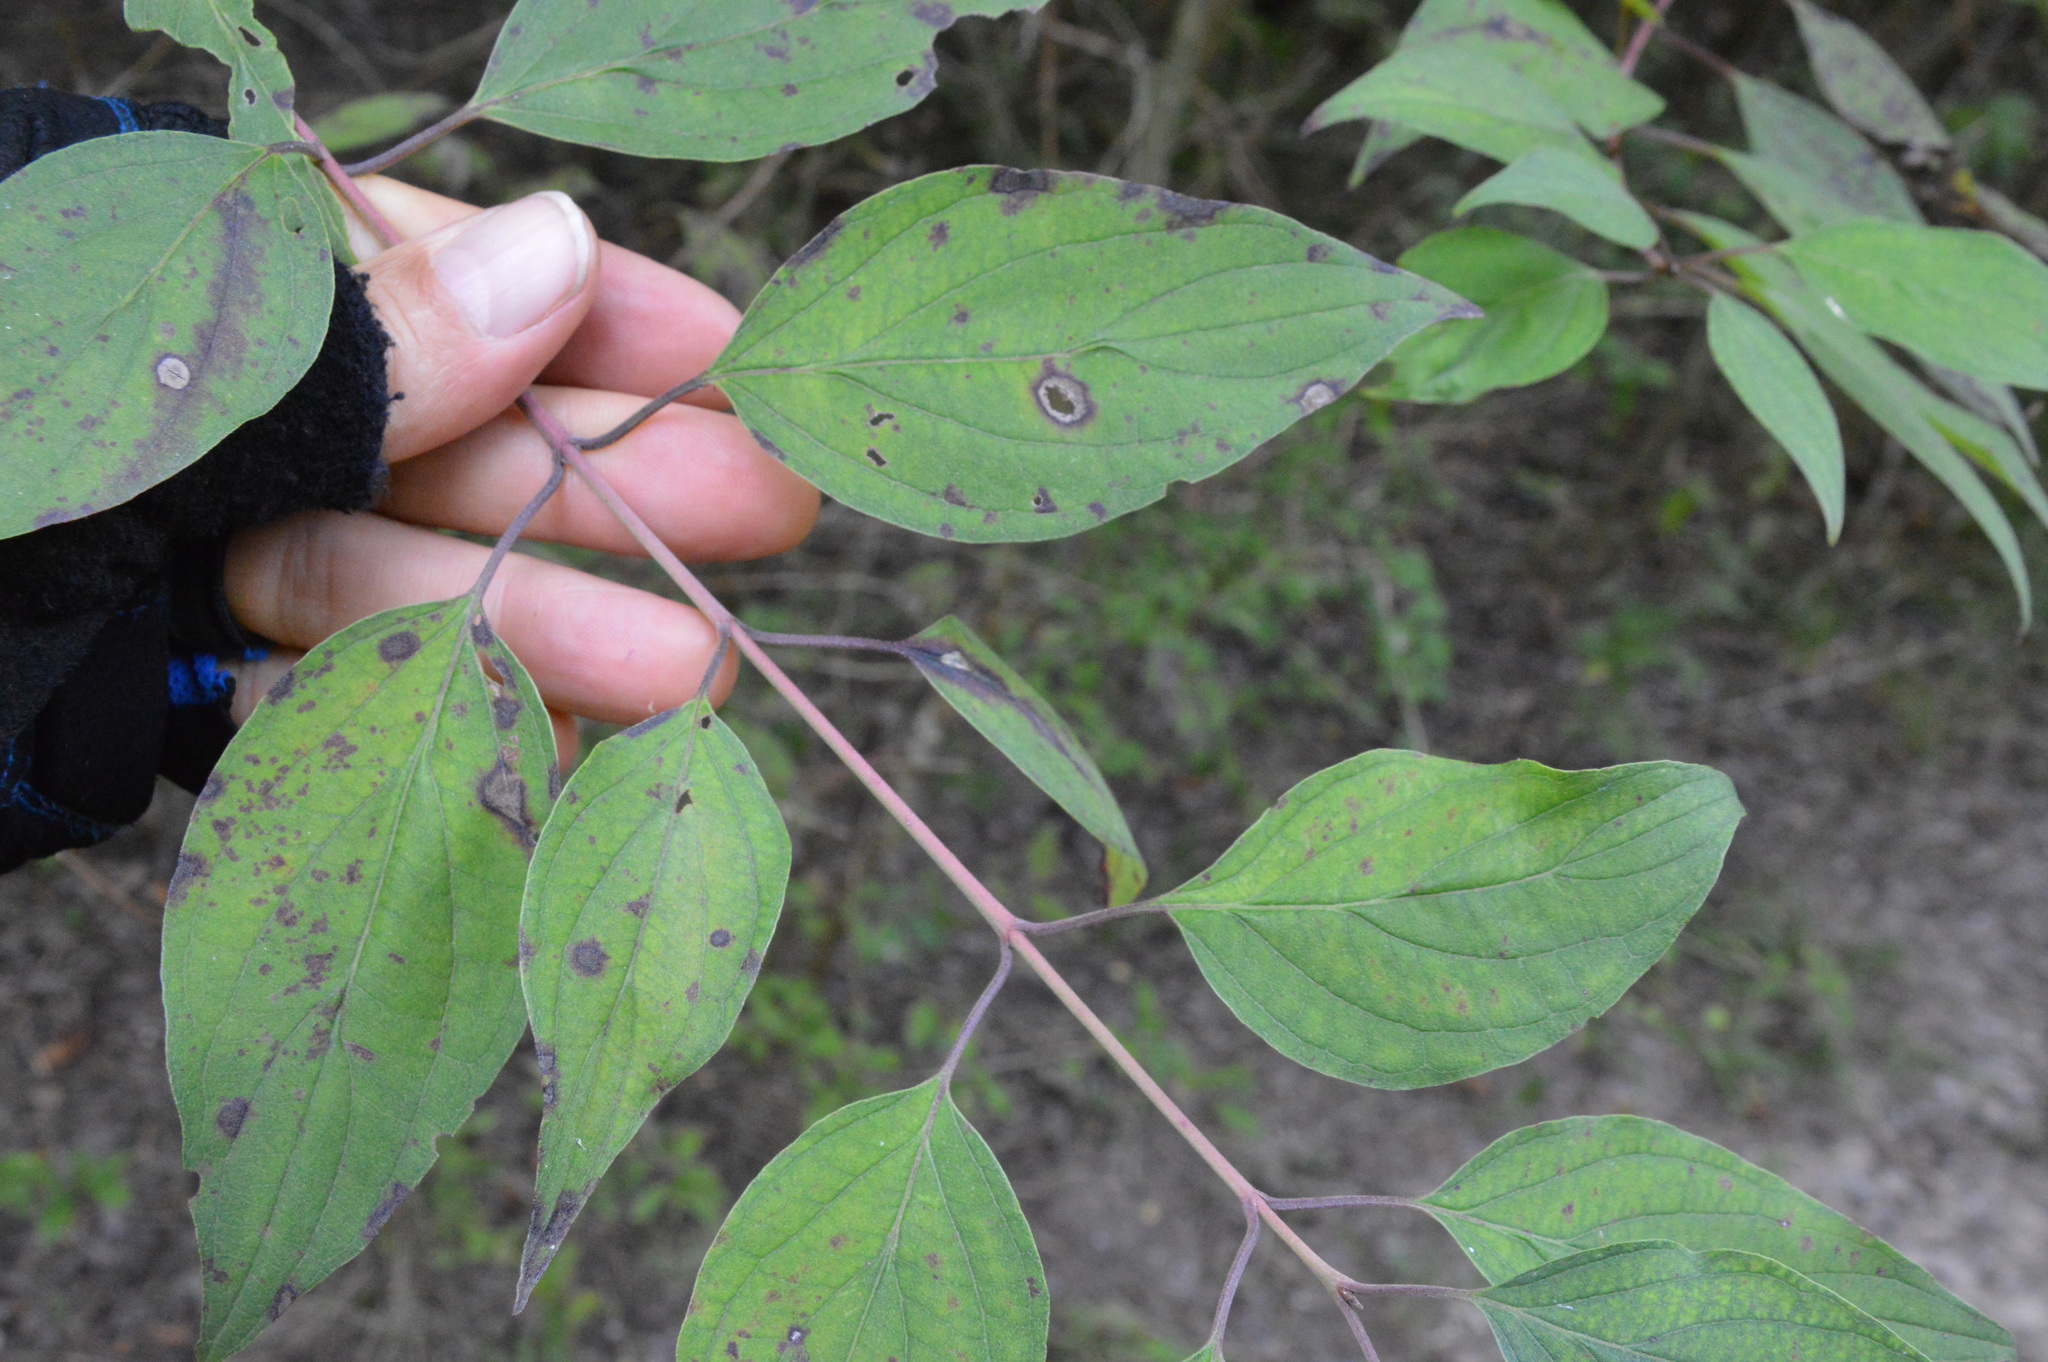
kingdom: Plantae
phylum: Tracheophyta
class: Magnoliopsida
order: Cornales
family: Cornaceae
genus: Cornus
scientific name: Cornus drummondii
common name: Rough-leaf dogwood
